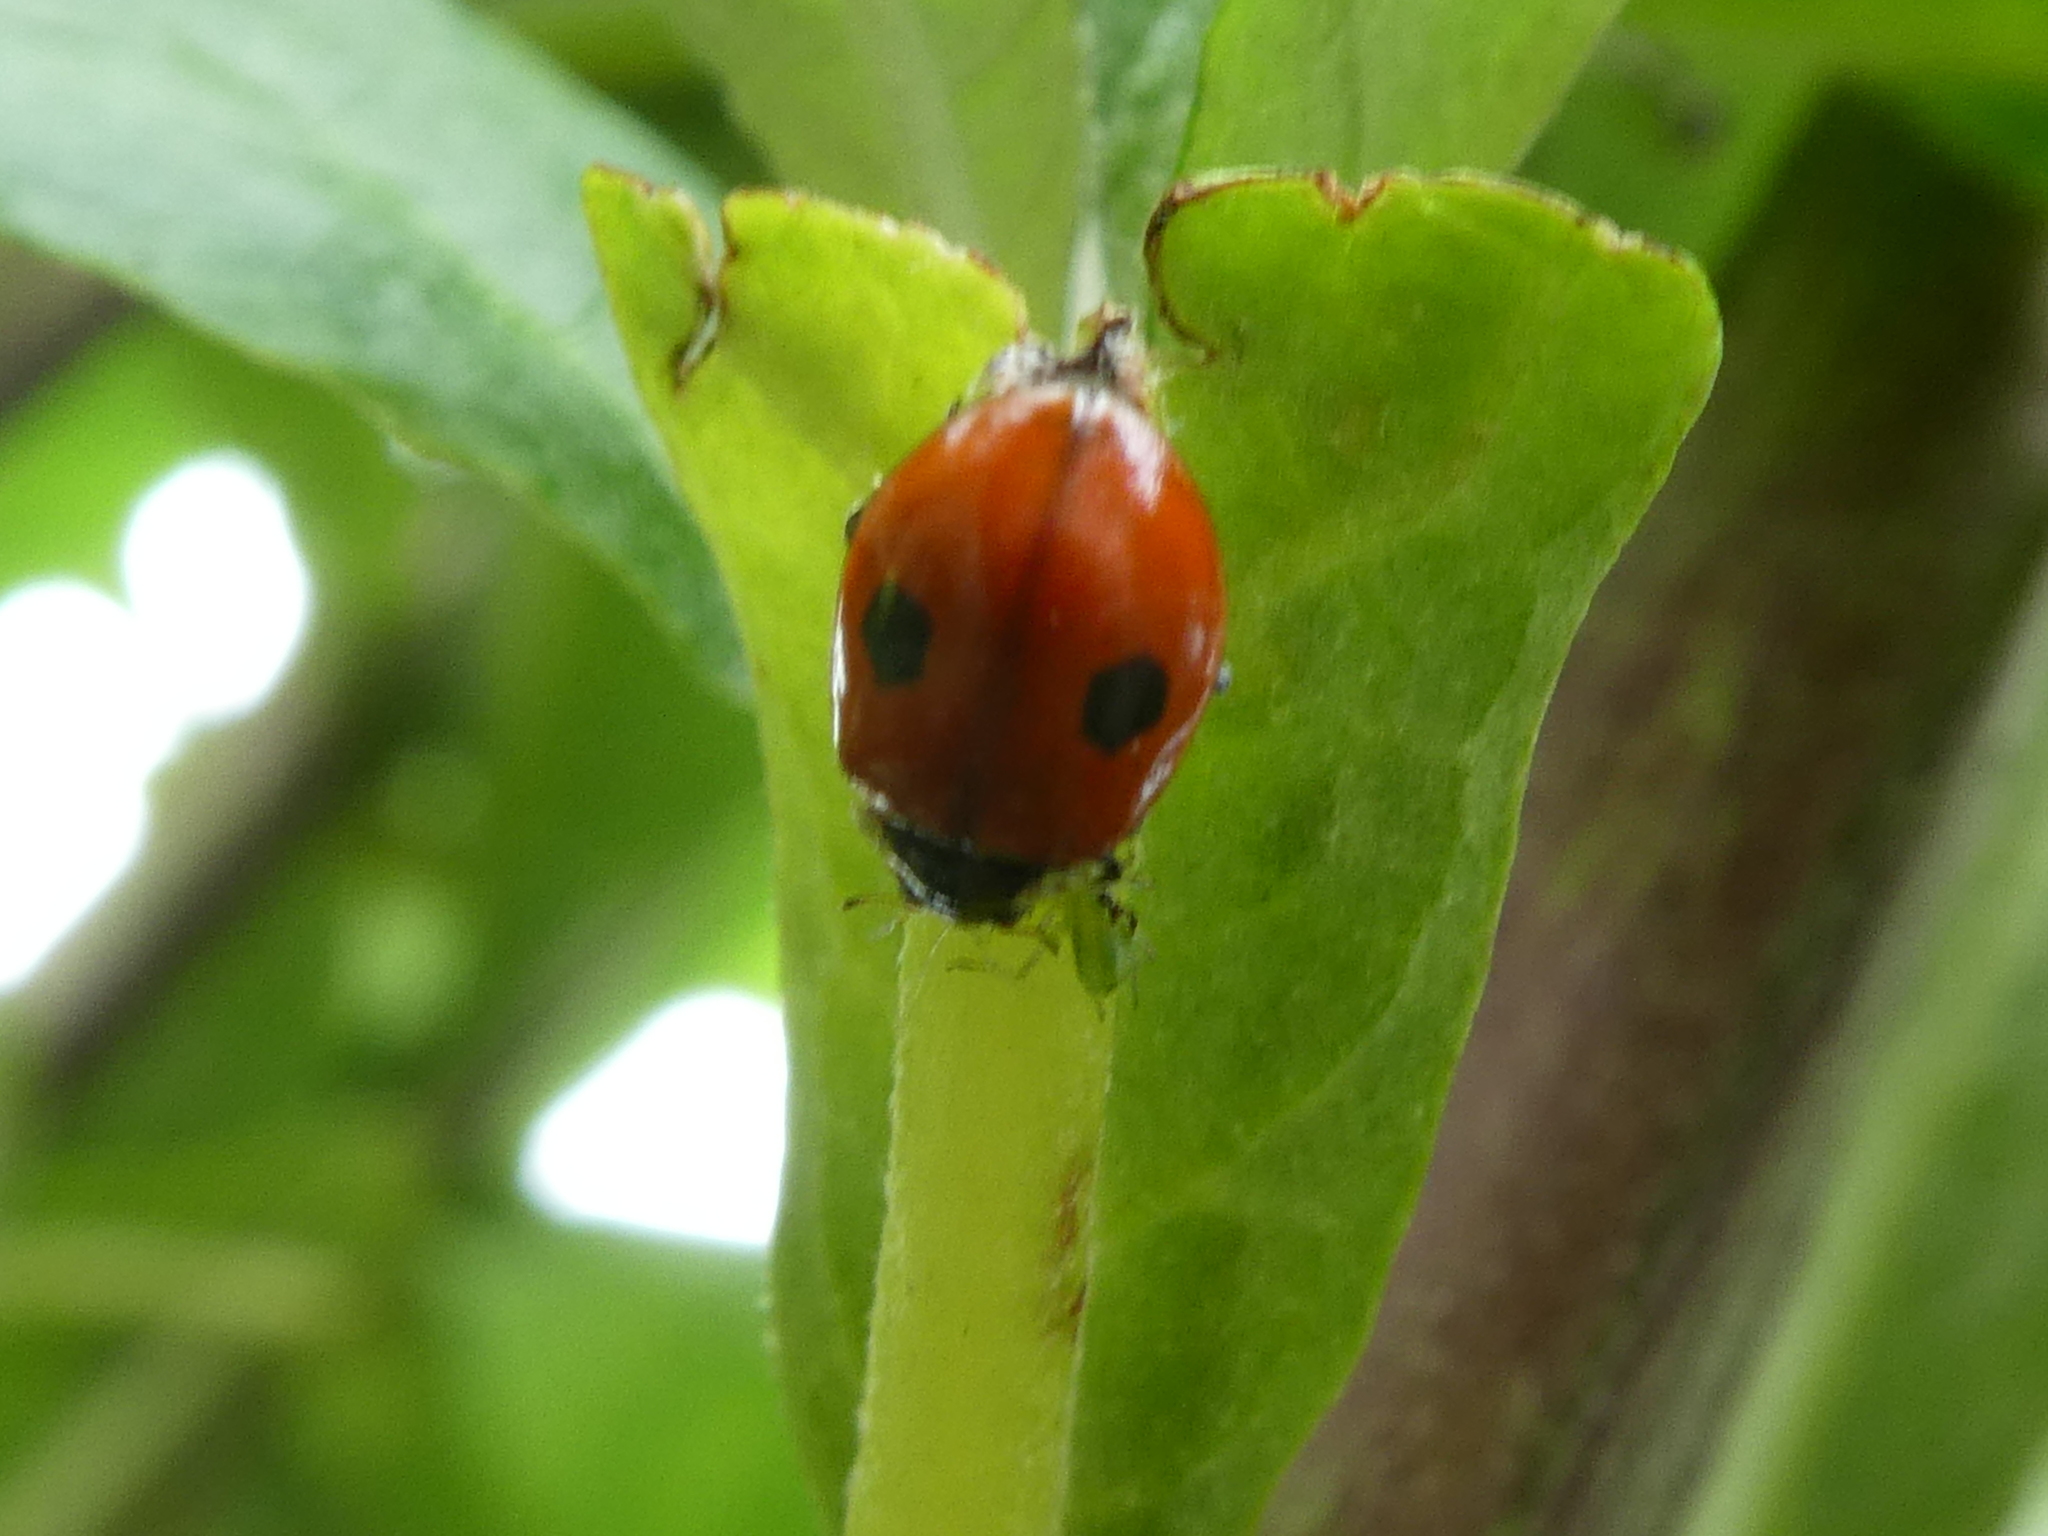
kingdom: Animalia
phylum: Arthropoda
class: Insecta
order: Coleoptera
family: Coccinellidae
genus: Adalia
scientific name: Adalia bipunctata
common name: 2-spot ladybird
